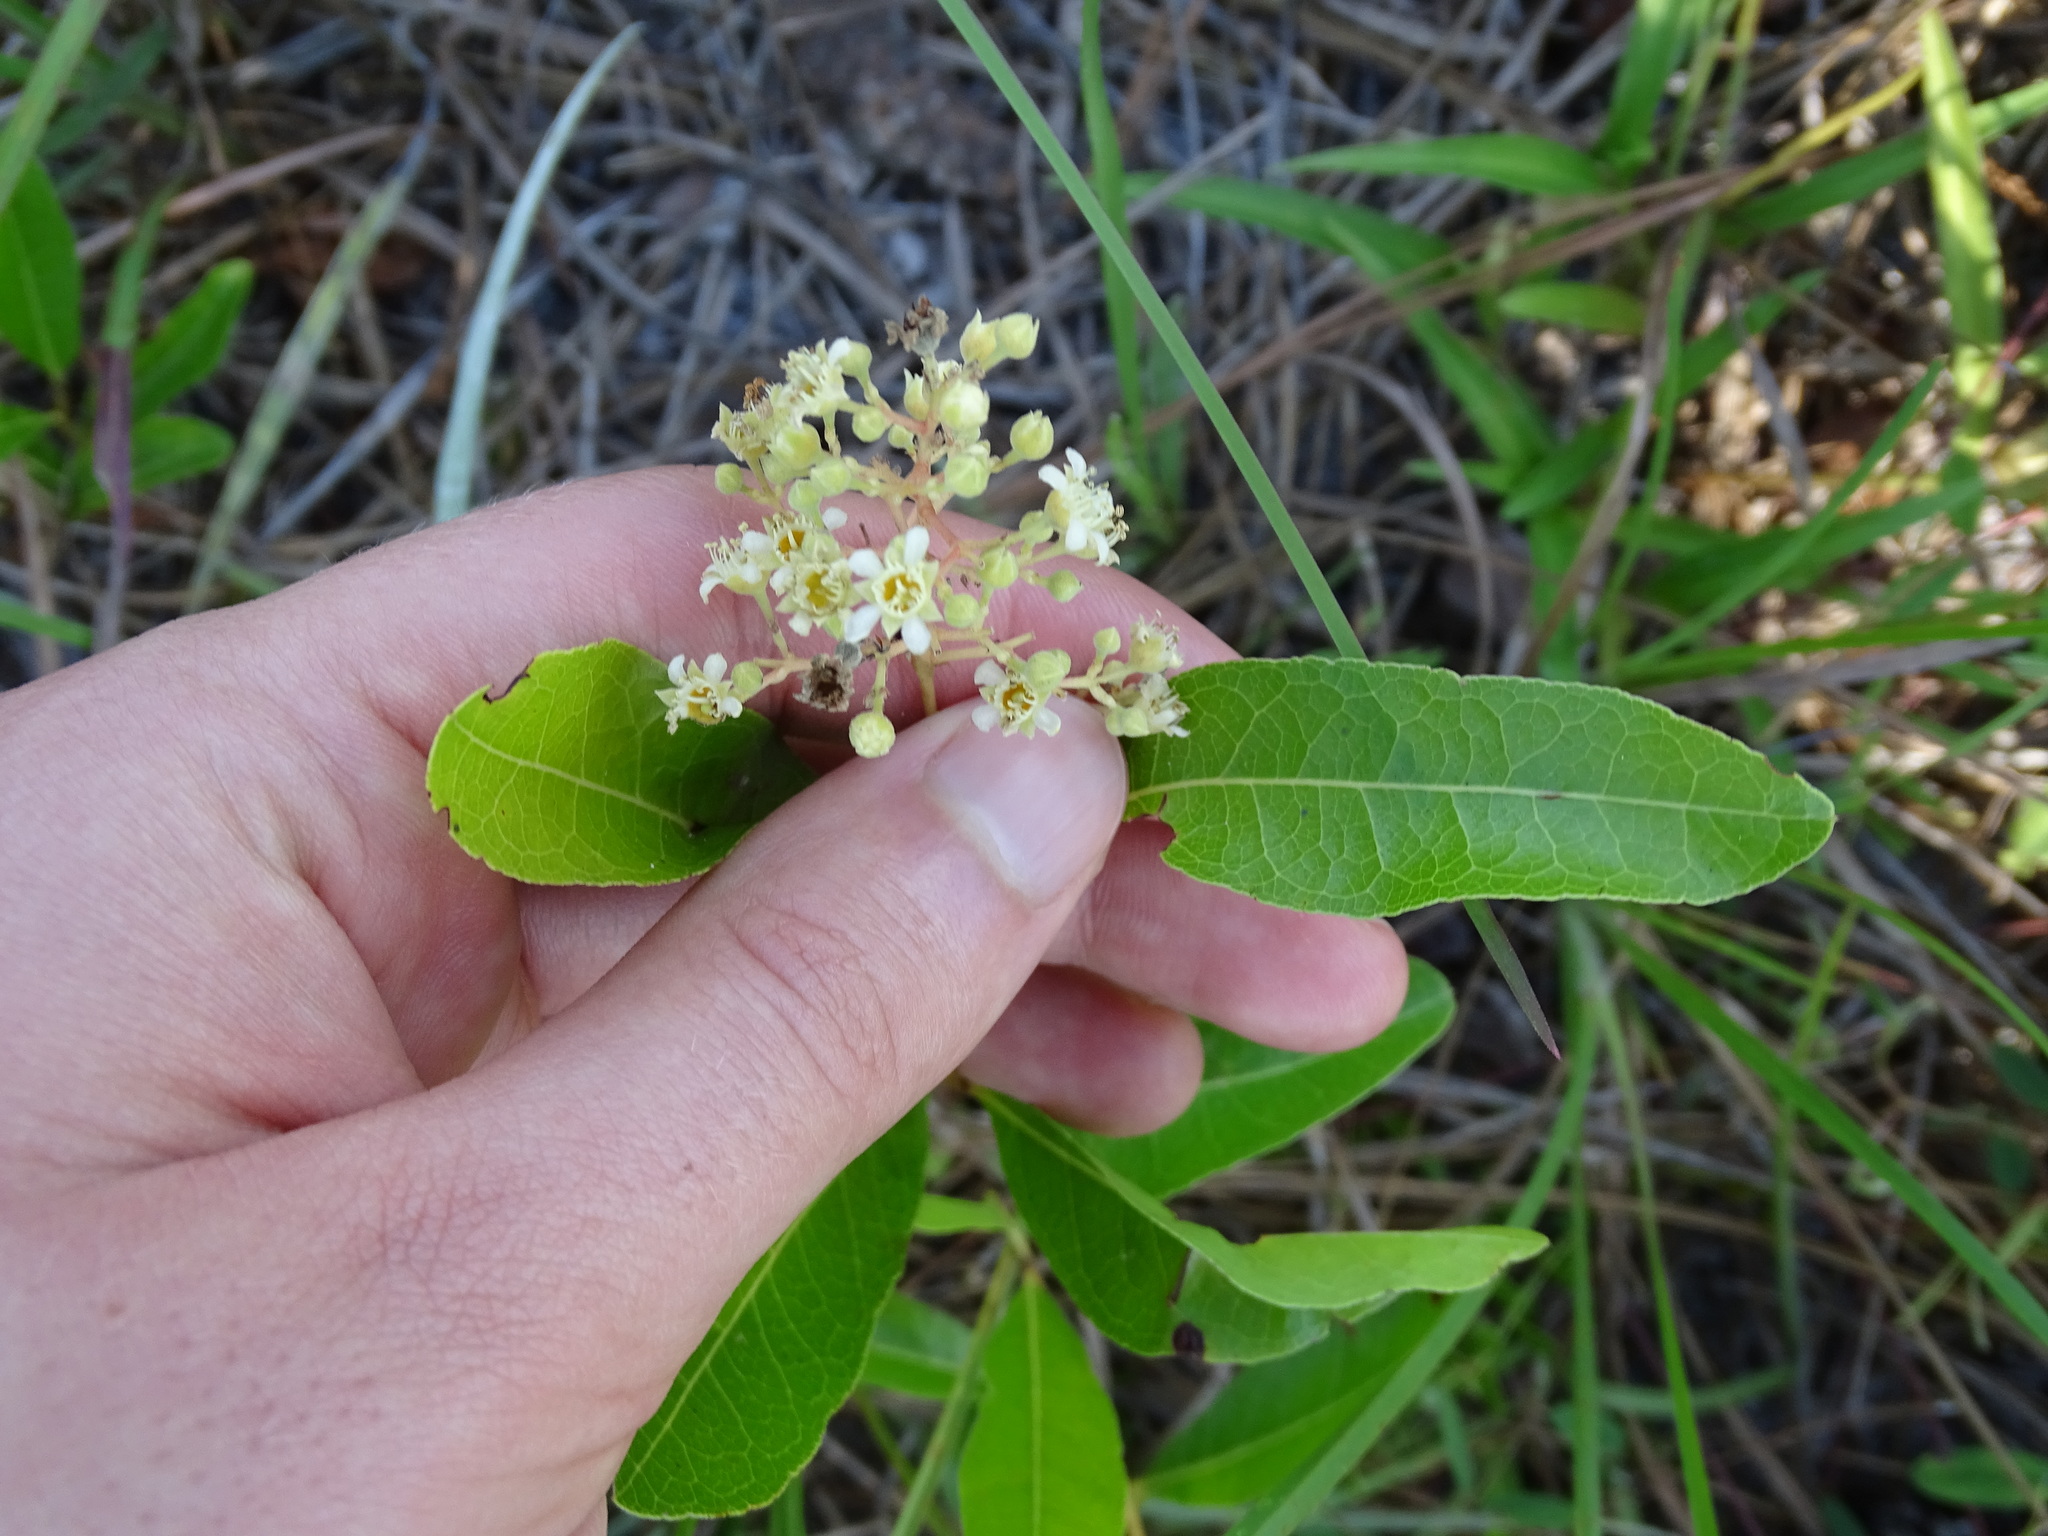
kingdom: Plantae
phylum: Tracheophyta
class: Magnoliopsida
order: Malpighiales
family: Chrysobalanaceae
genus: Geobalanus
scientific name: Geobalanus oblongifolius
